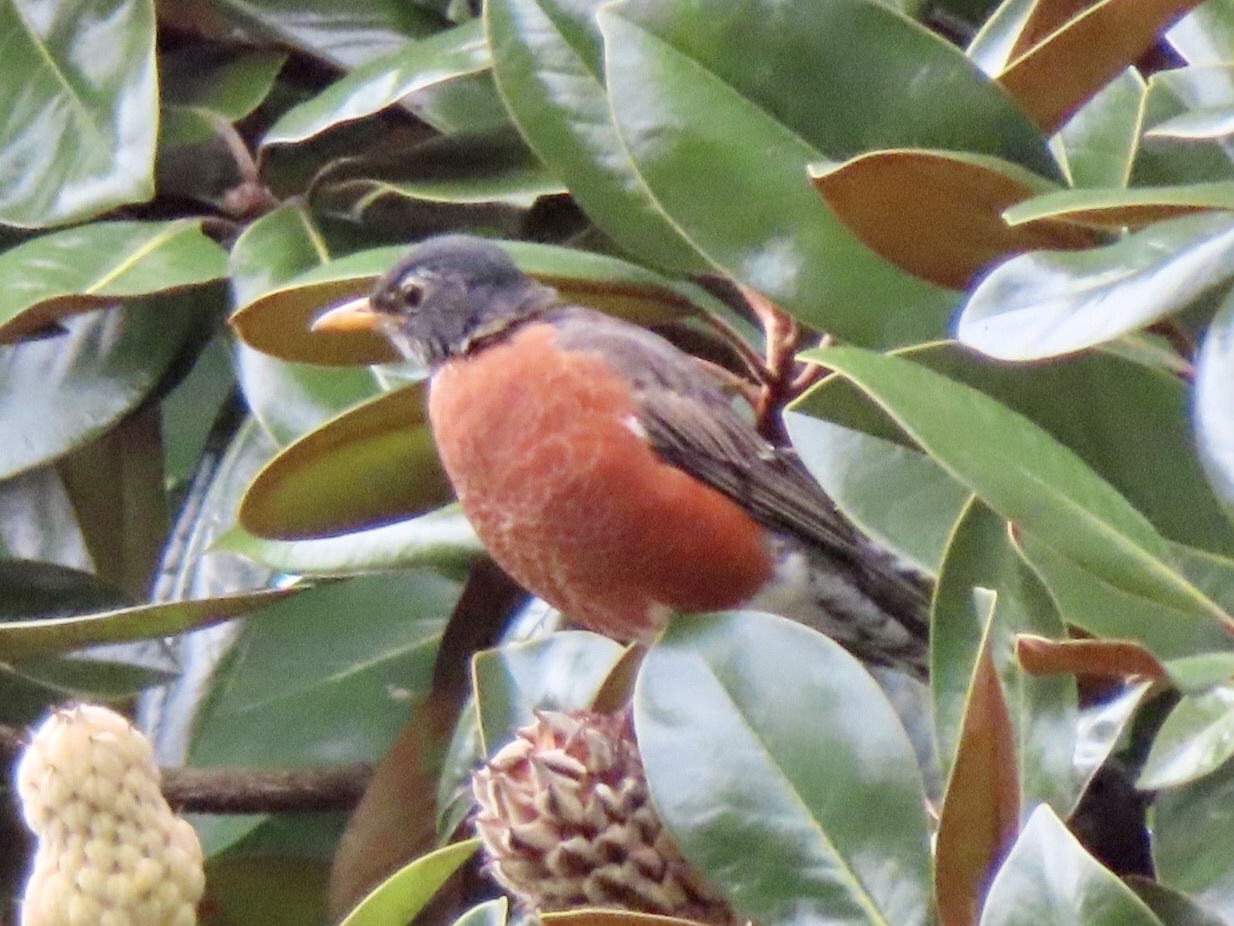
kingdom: Animalia
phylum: Chordata
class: Aves
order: Passeriformes
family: Turdidae
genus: Turdus
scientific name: Turdus migratorius
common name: American robin
